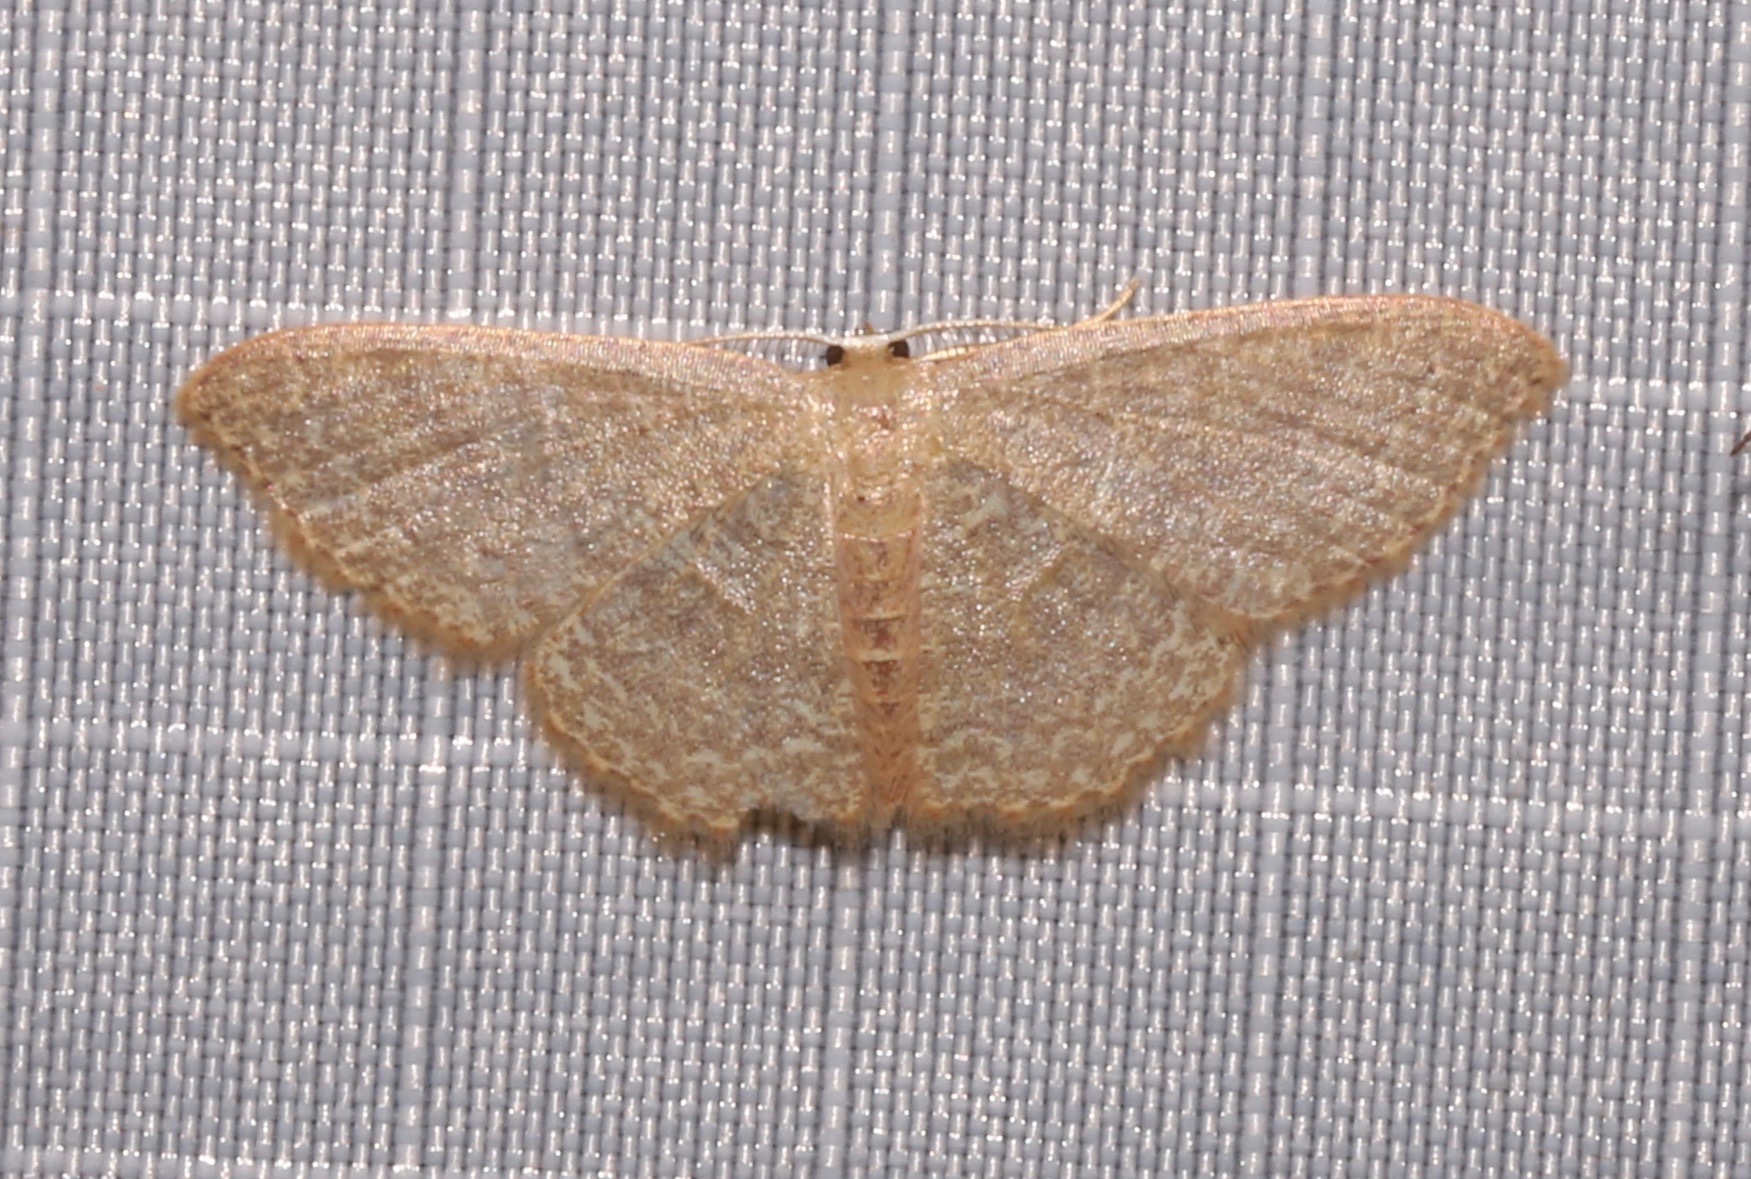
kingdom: Animalia
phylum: Arthropoda
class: Insecta
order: Lepidoptera
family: Geometridae
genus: Pleuroprucha
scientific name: Pleuroprucha insulsaria
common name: Common tan wave
